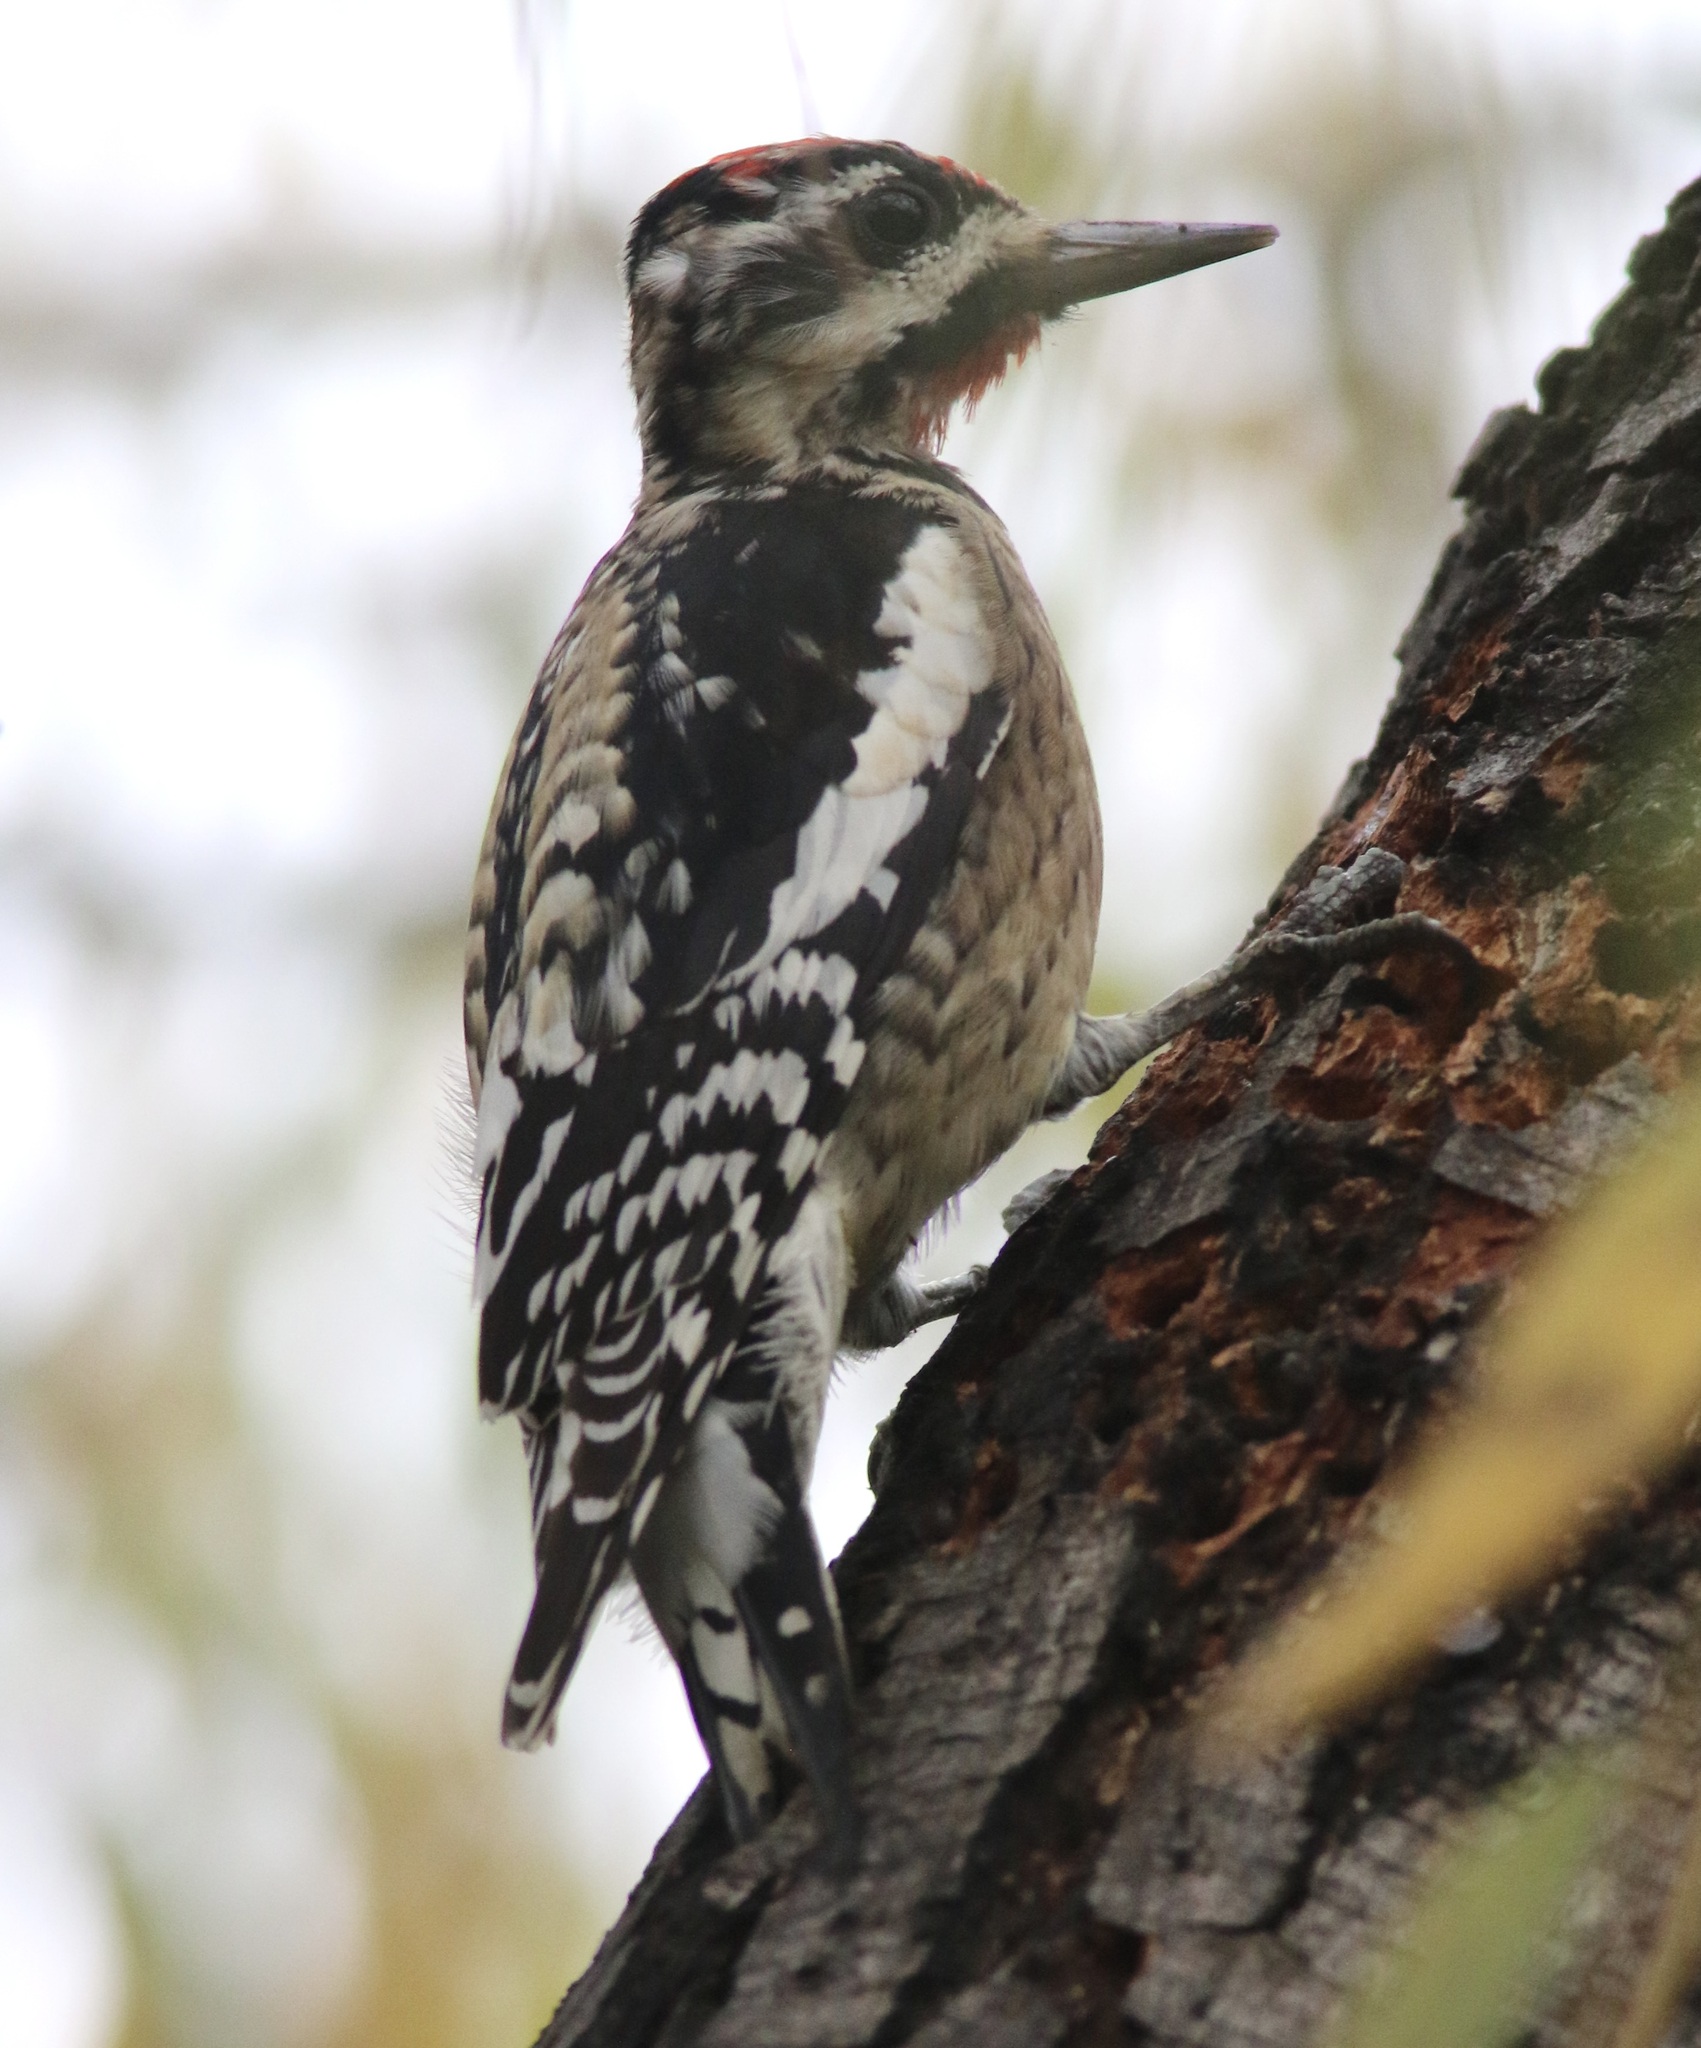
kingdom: Animalia
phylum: Chordata
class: Aves
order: Piciformes
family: Picidae
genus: Sphyrapicus
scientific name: Sphyrapicus varius
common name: Yellow-bellied sapsucker
